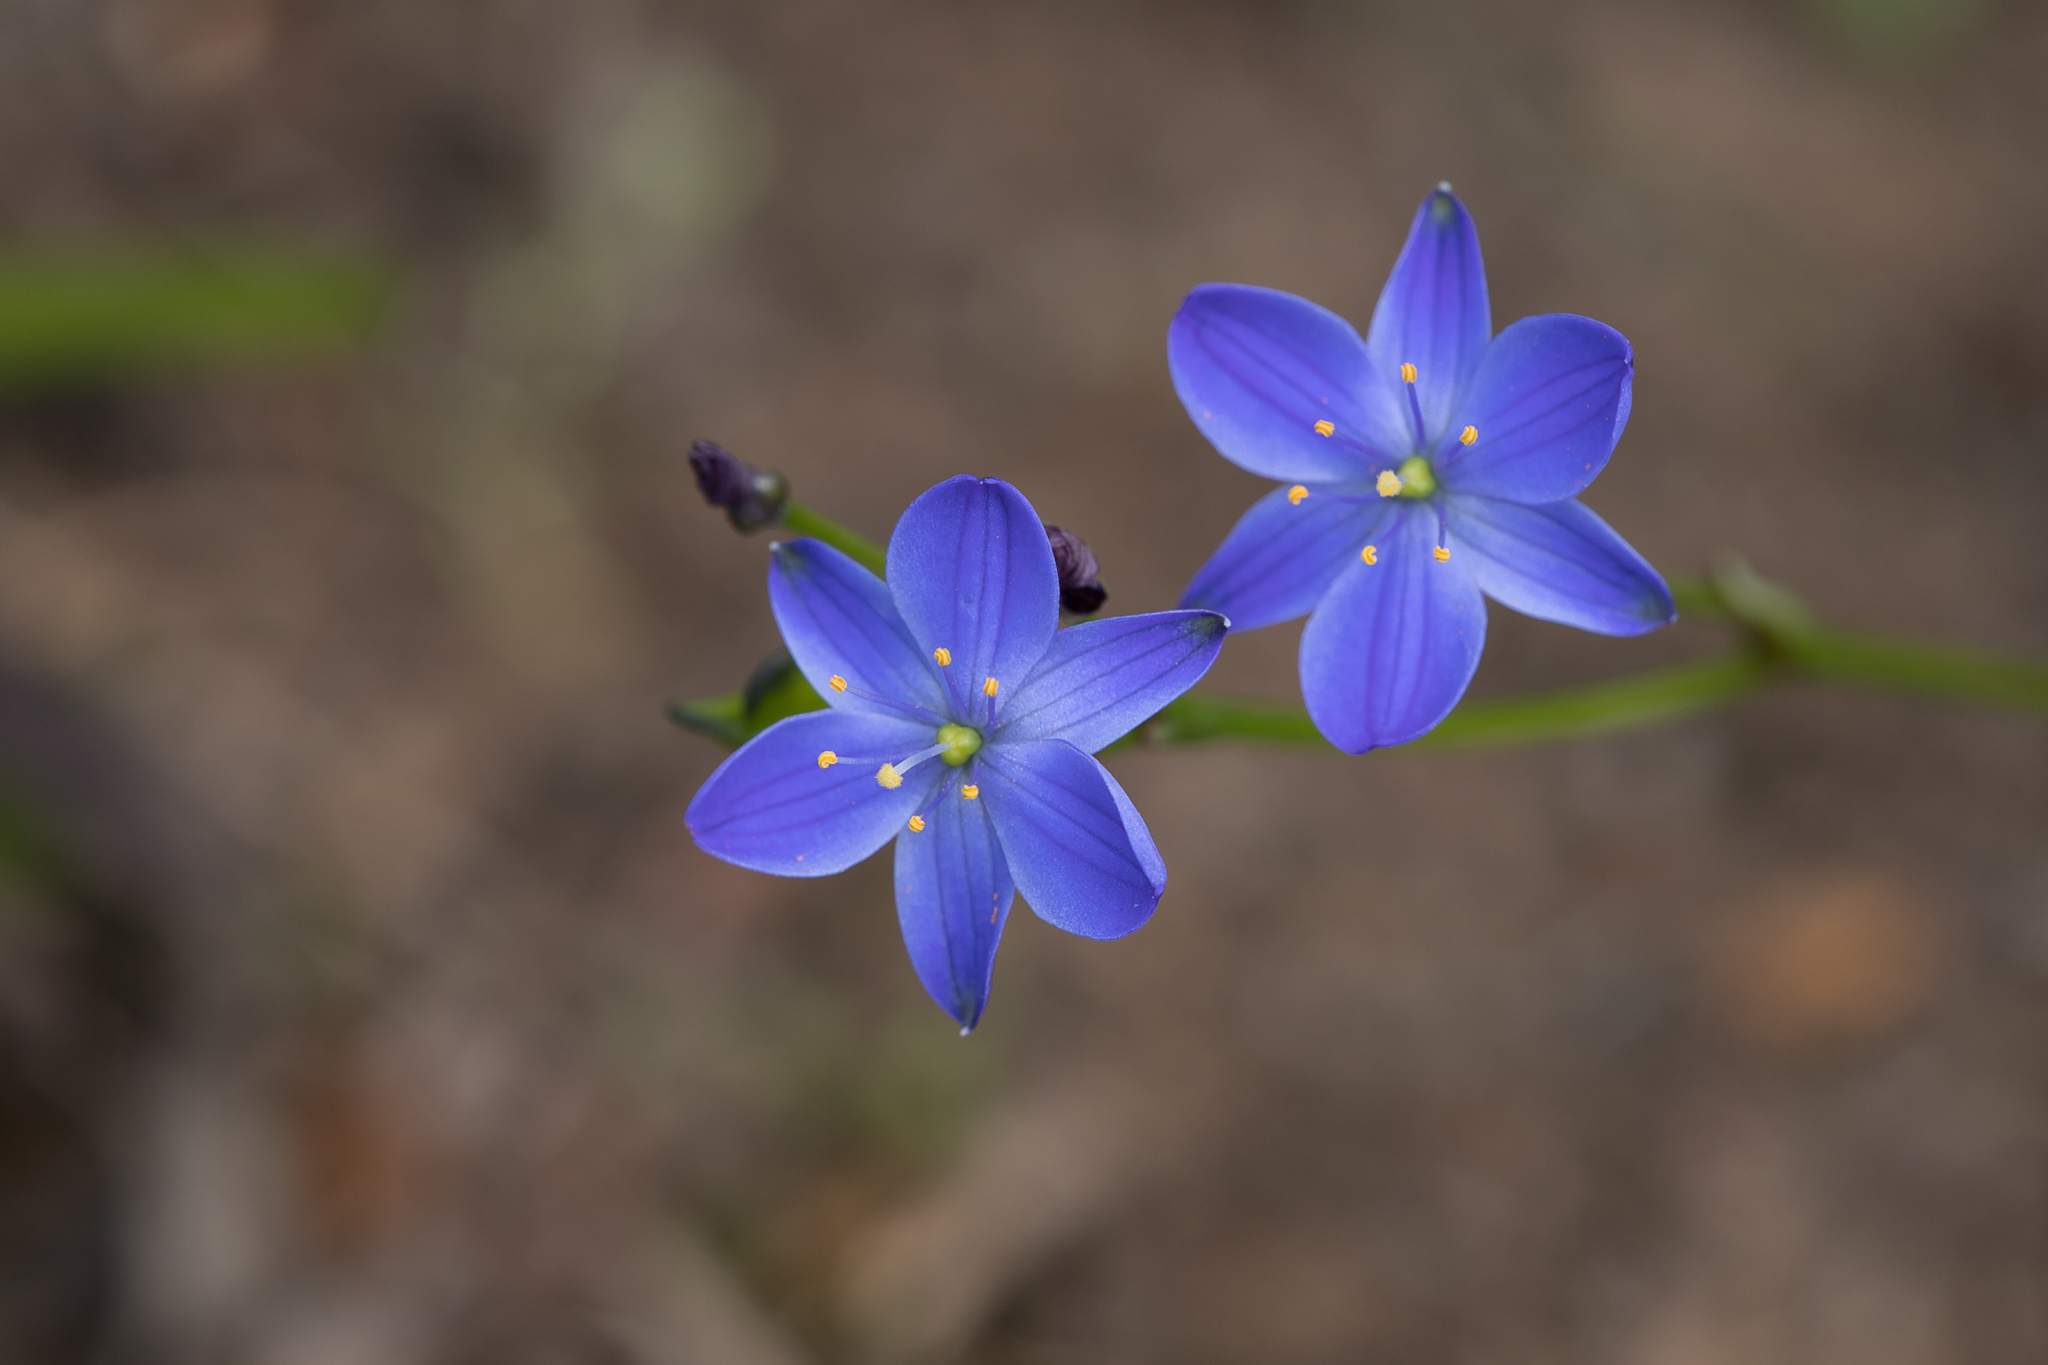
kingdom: Plantae
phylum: Tracheophyta
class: Liliopsida
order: Asparagales
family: Asphodelaceae
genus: Chamaescilla
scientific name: Chamaescilla corymbosa
